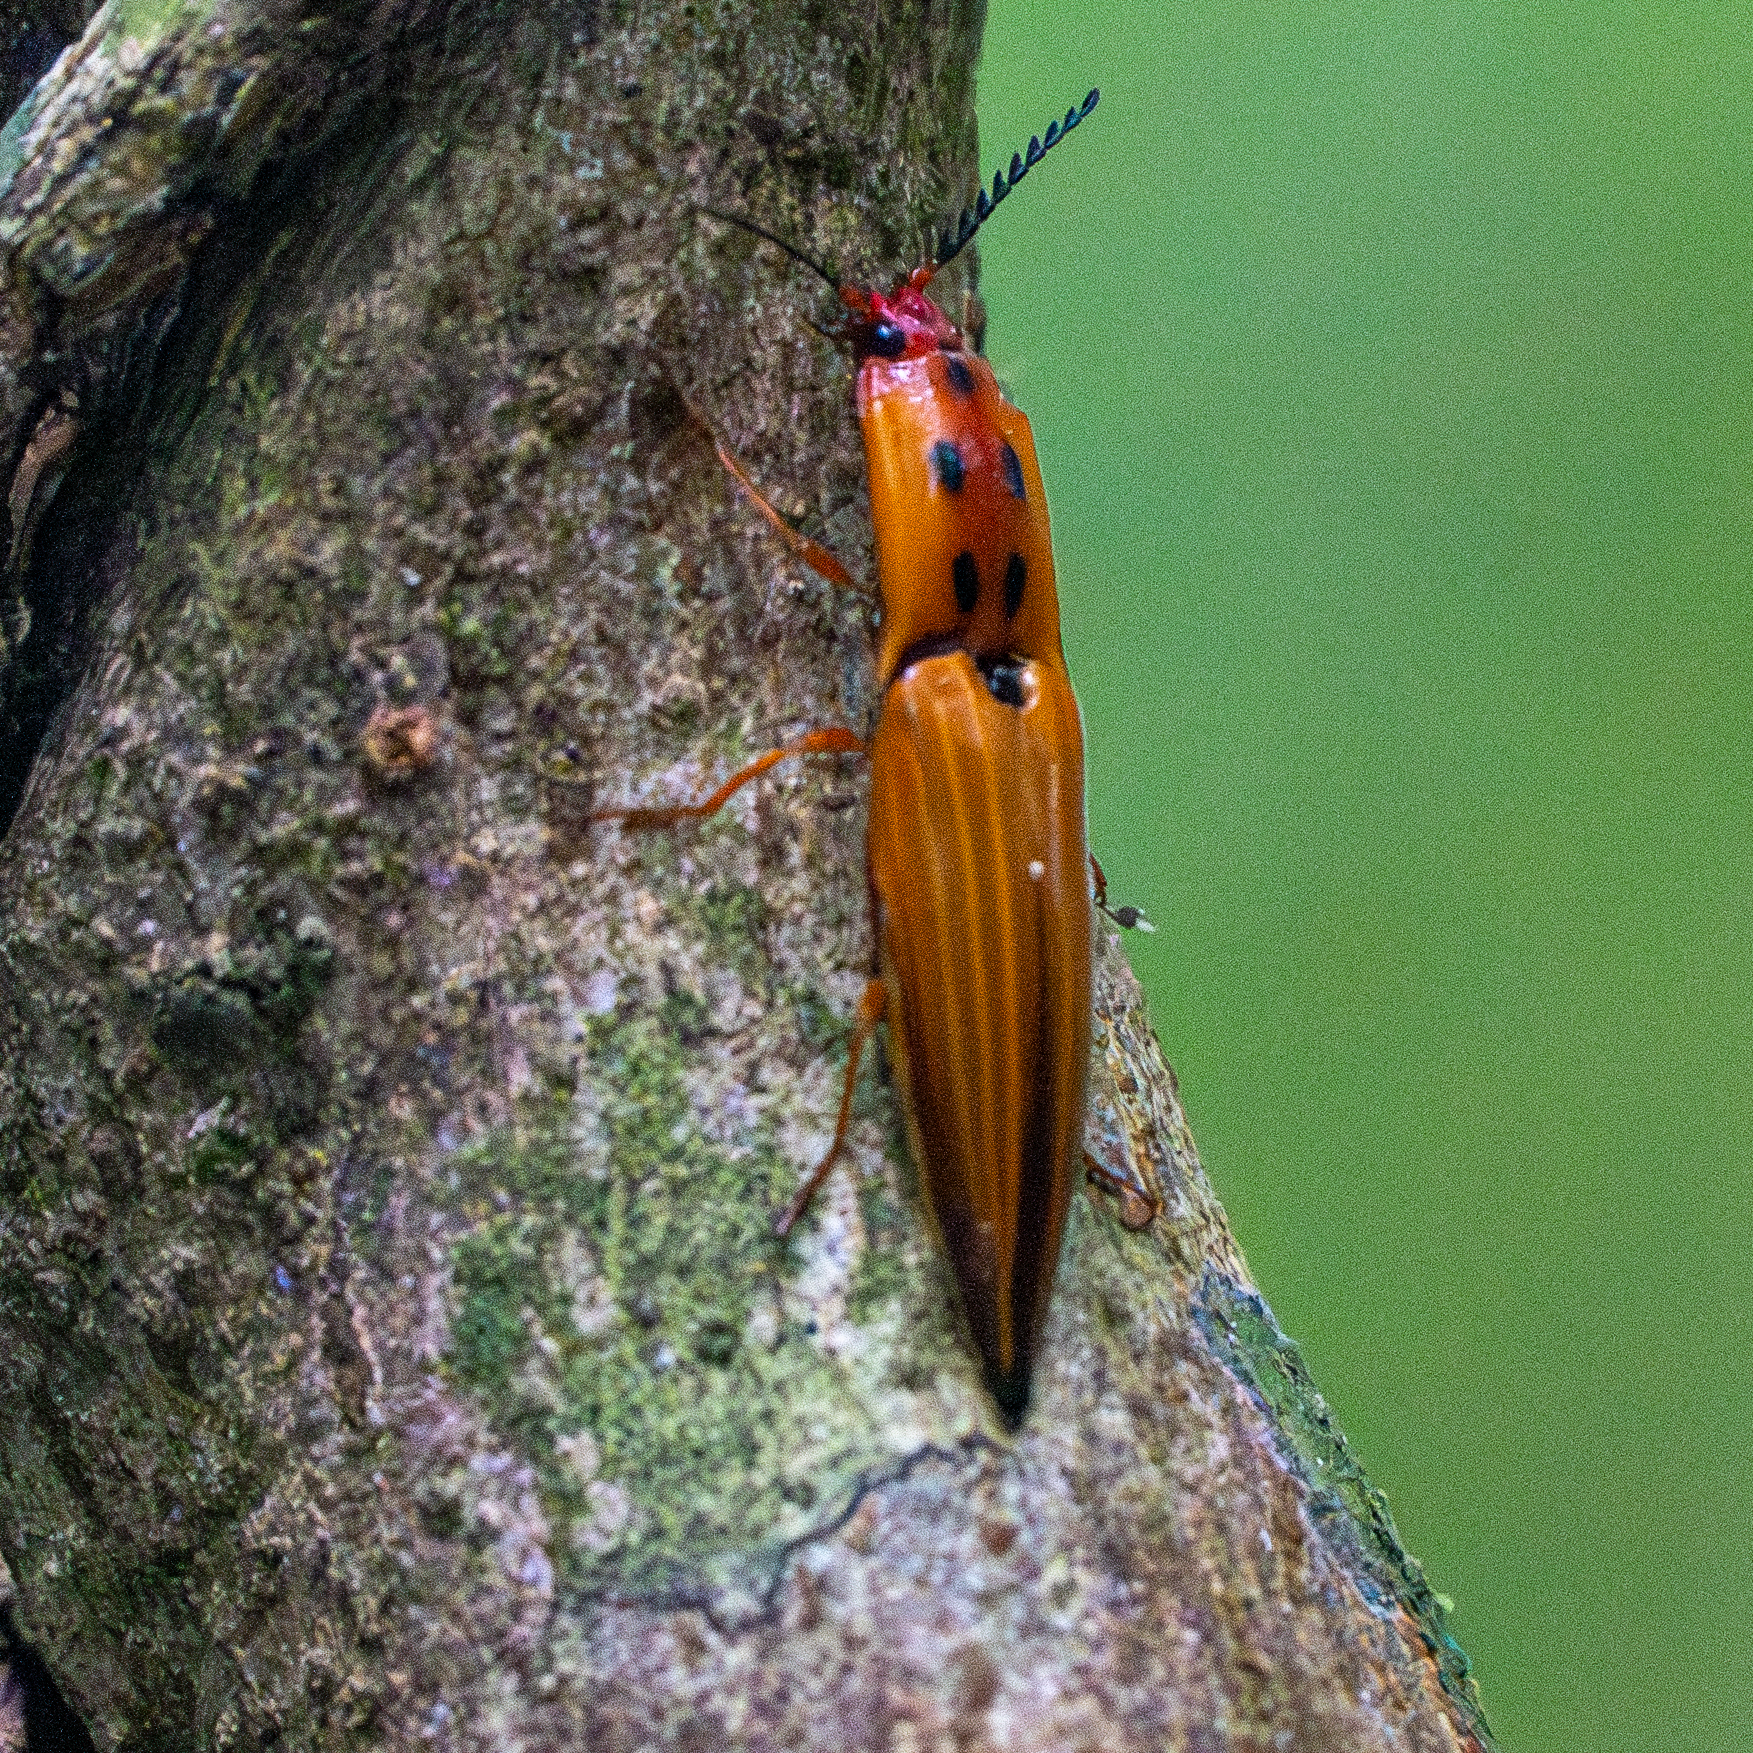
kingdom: Animalia
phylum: Arthropoda
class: Insecta
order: Coleoptera
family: Elateridae
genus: Semiotus
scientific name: Semiotus insignis
